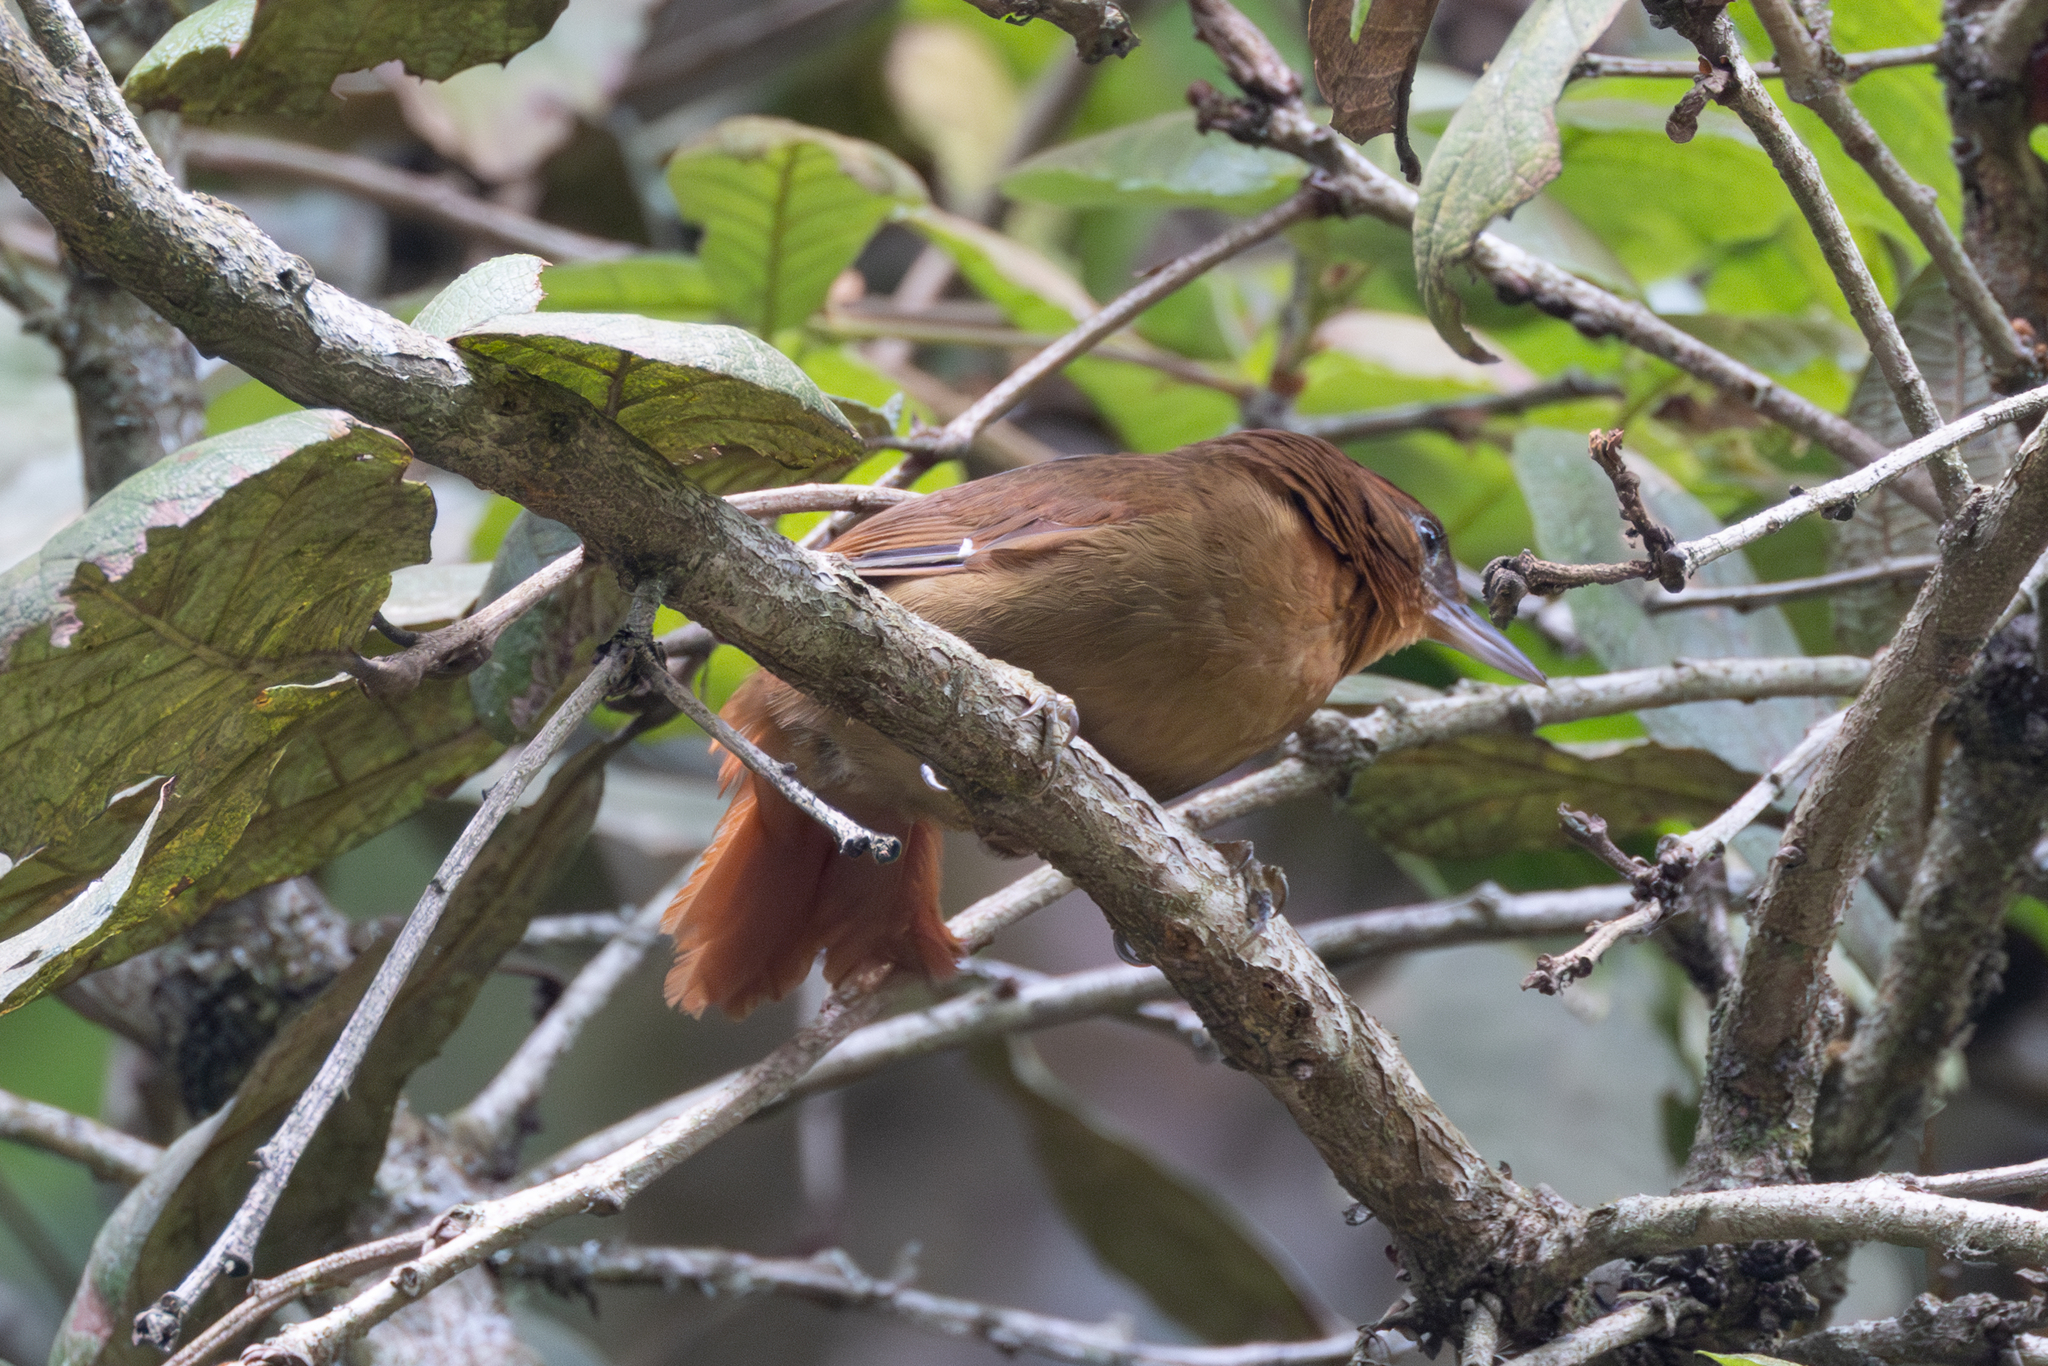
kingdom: Animalia
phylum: Chordata
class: Aves
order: Passeriformes
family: Furnariidae
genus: Automolus
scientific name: Automolus rubiginosus
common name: Ruddy foliage-gleaner
